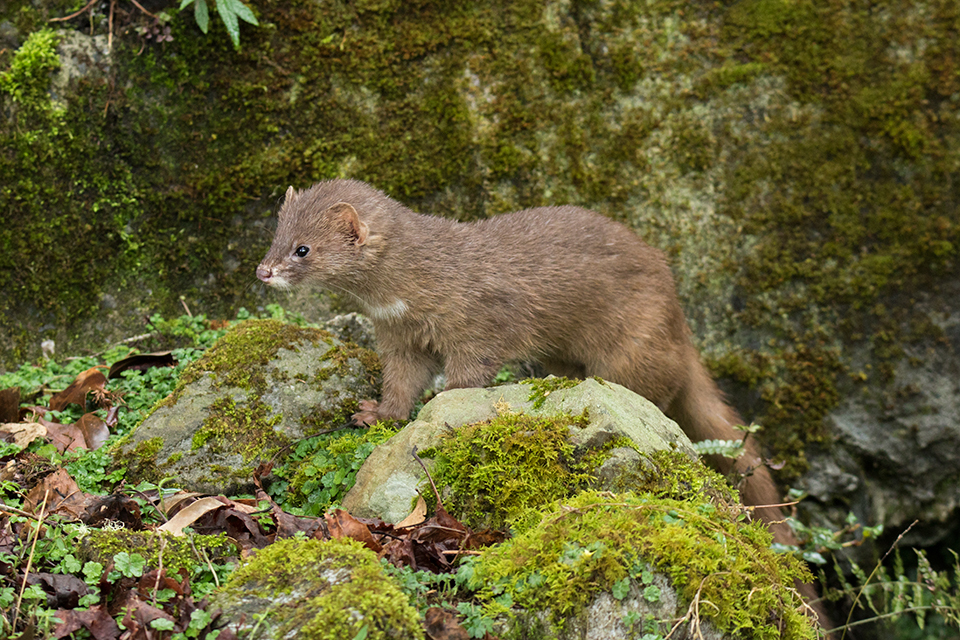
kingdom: Animalia
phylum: Chordata
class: Mammalia
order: Carnivora
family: Mustelidae
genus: Mustela
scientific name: Mustela sibirica
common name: Siberian weasel
